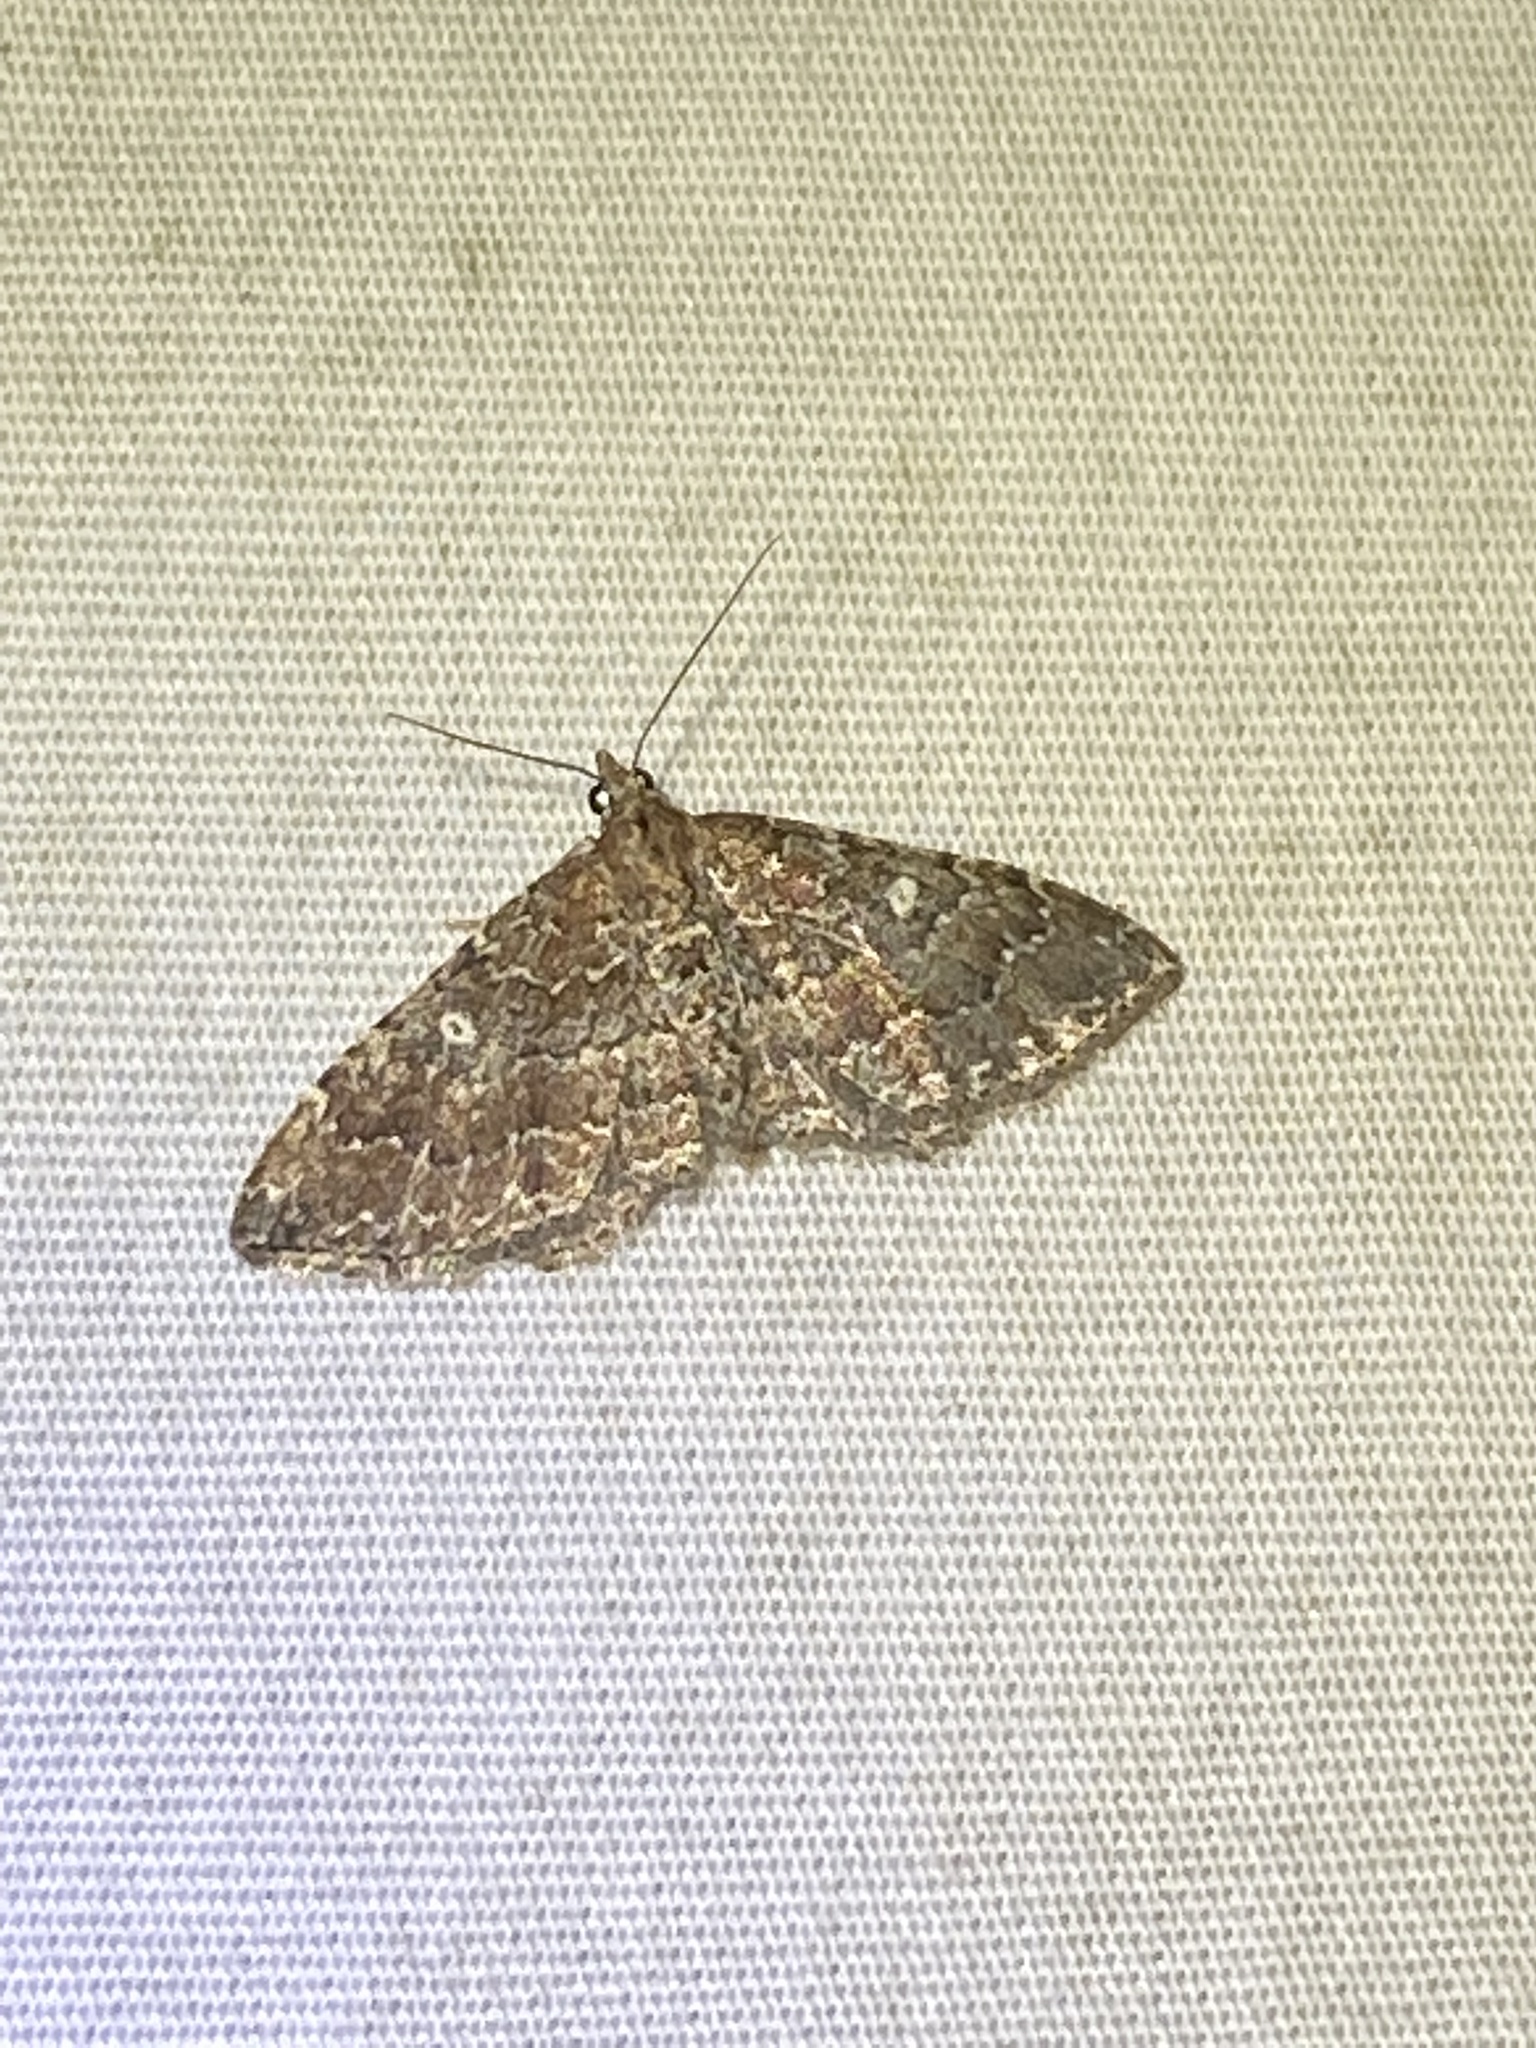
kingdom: Animalia
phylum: Arthropoda
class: Insecta
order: Lepidoptera
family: Geometridae
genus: Orthonama
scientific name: Orthonama obstipata
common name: The gem
